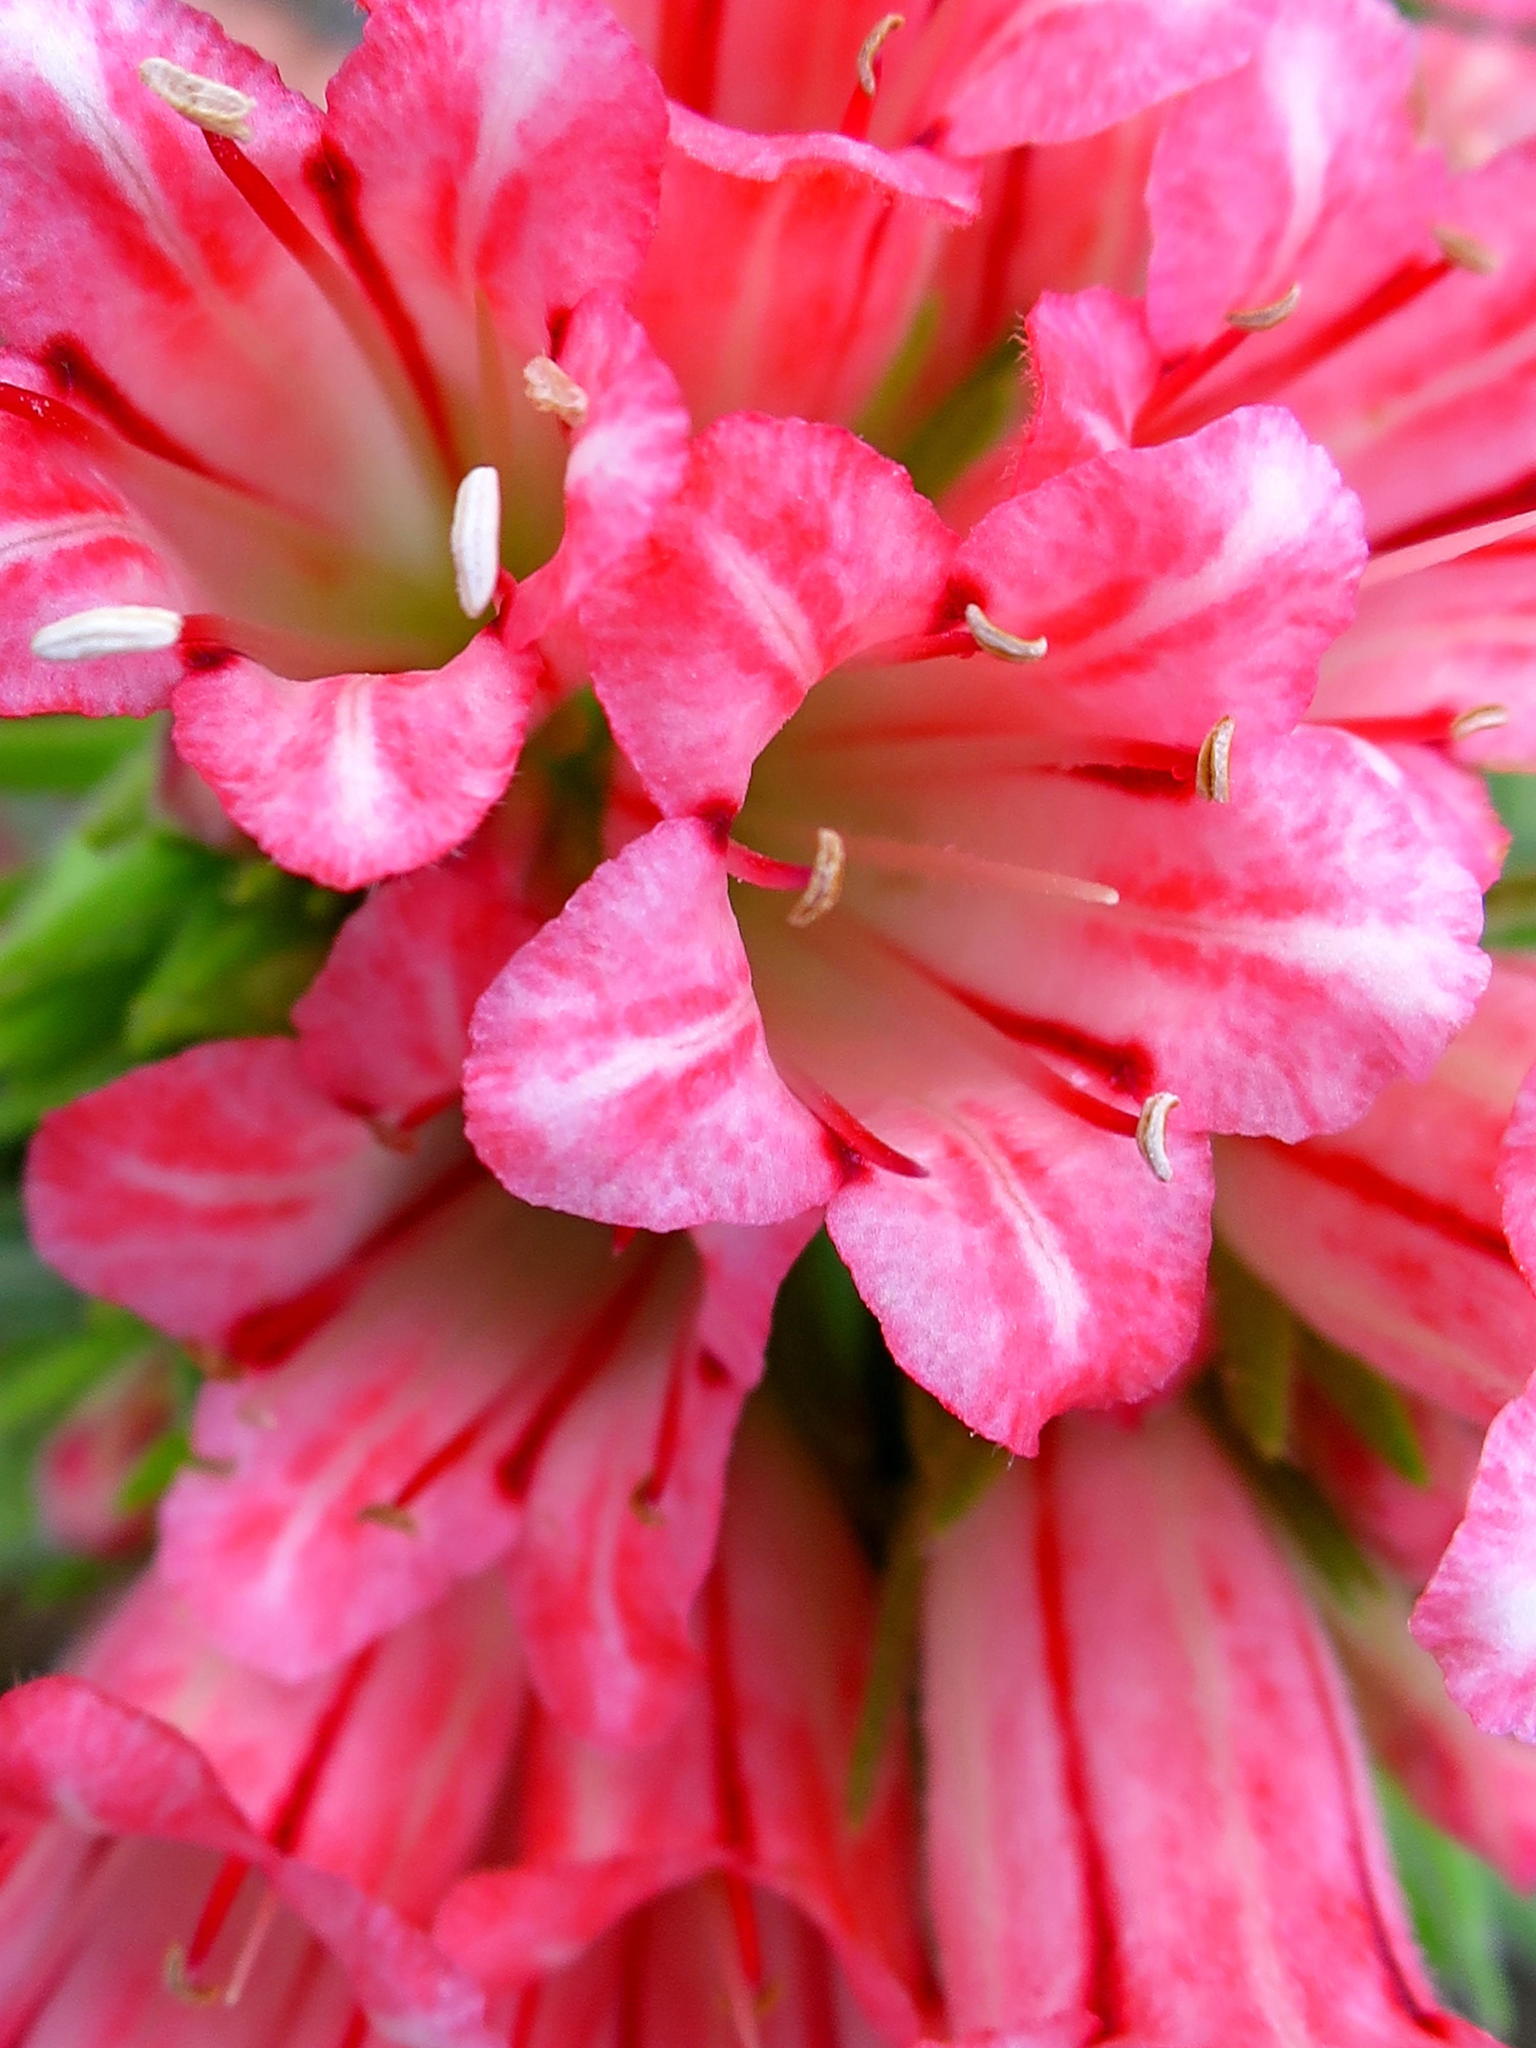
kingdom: Plantae
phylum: Tracheophyta
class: Magnoliopsida
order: Boraginales
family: Boraginaceae
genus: Lobostemon
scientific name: Lobostemon belliformis
